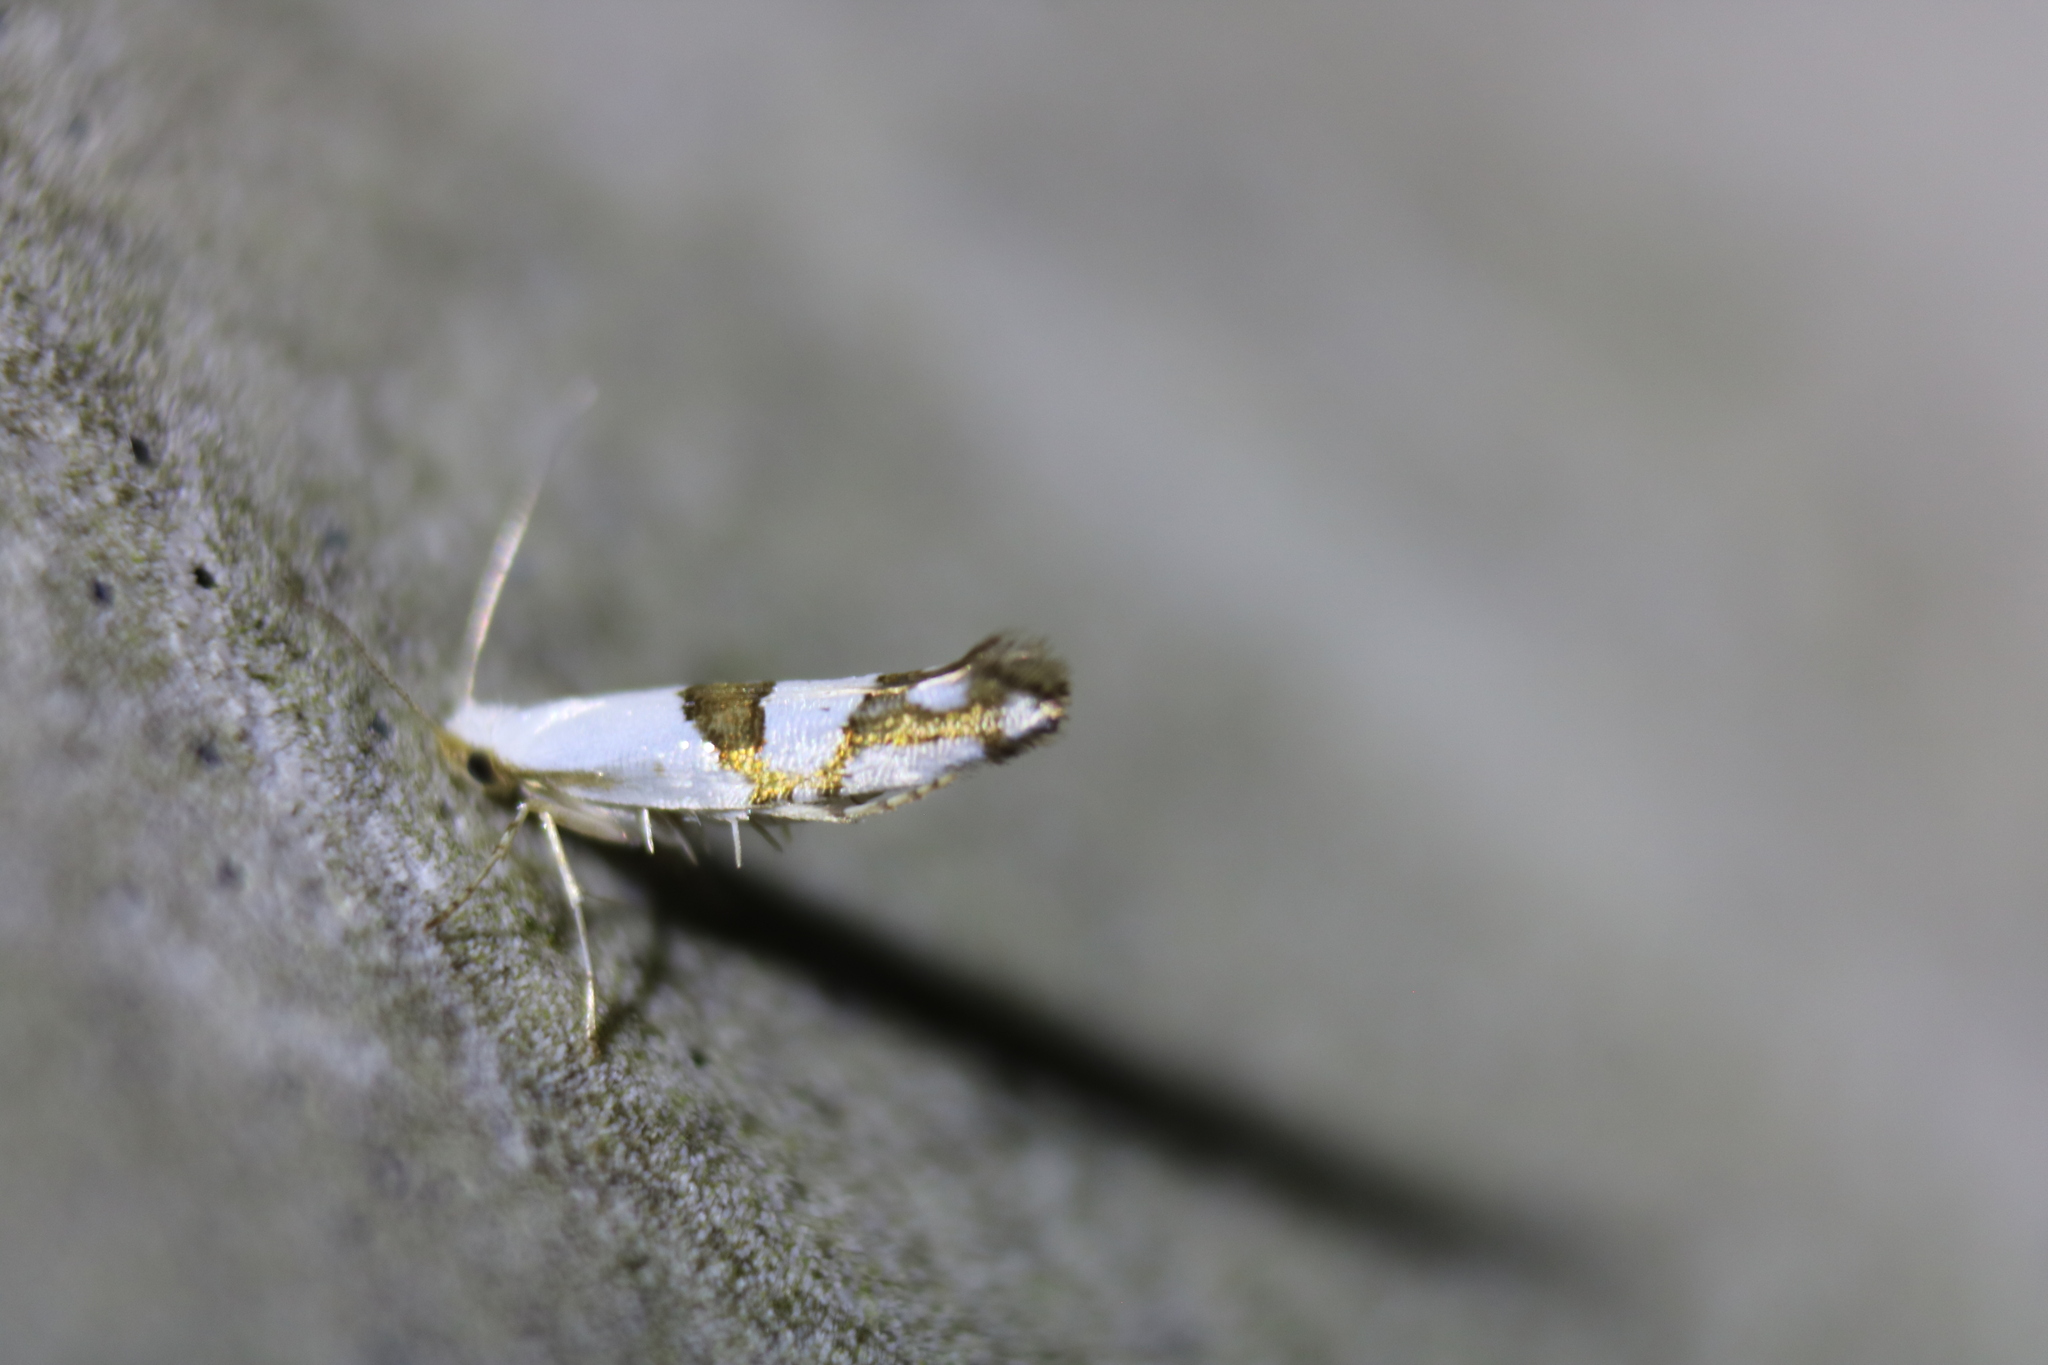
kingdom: Animalia
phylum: Arthropoda
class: Insecta
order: Lepidoptera
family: Argyresthiidae
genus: Argyresthia
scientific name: Argyresthia oreasella
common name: Cherry shoot borer moth
